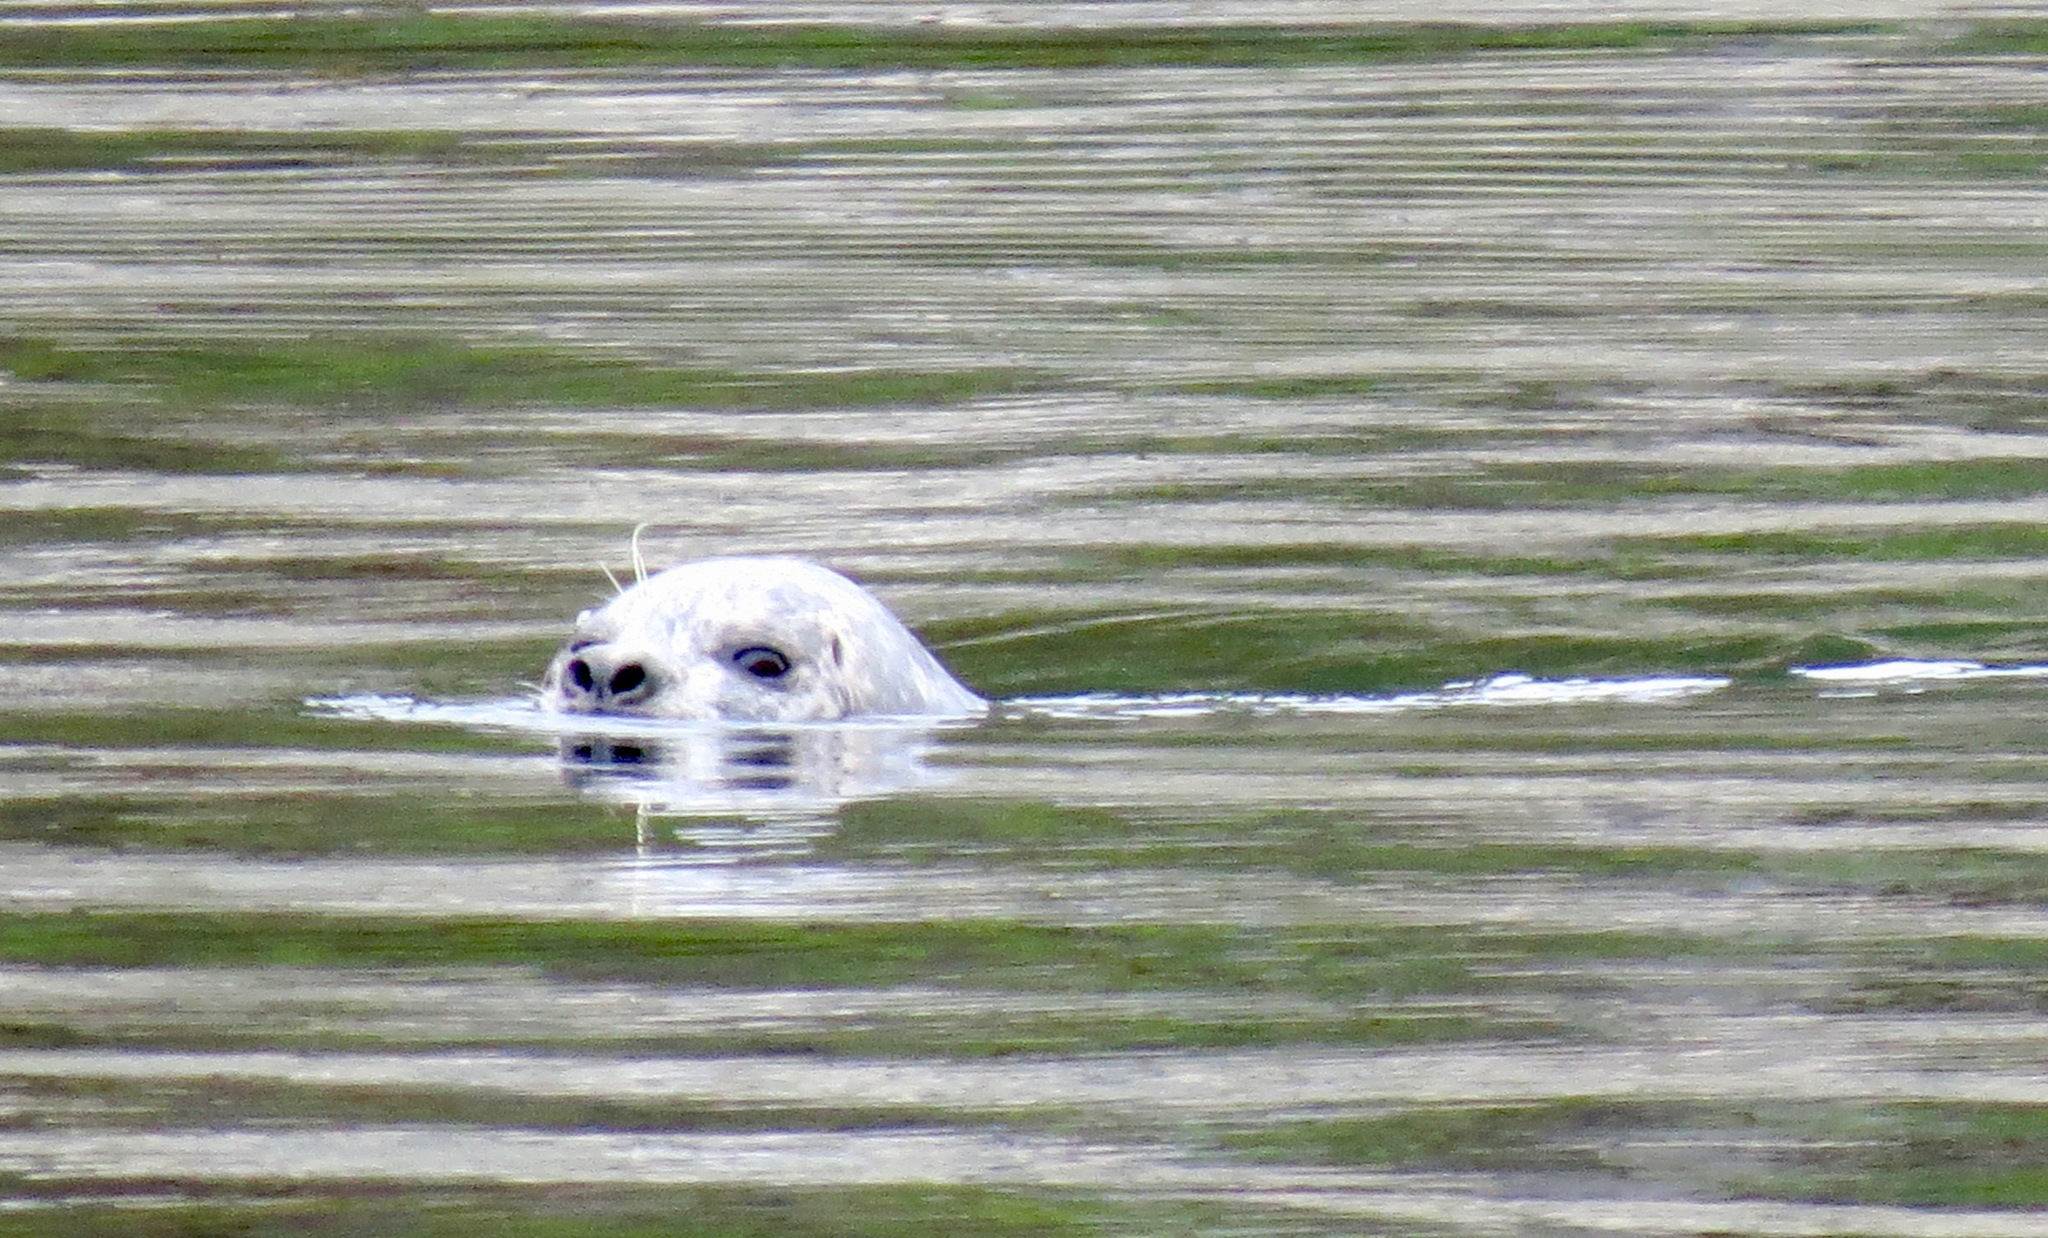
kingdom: Animalia
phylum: Chordata
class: Mammalia
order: Carnivora
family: Phocidae
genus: Phoca
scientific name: Phoca vitulina
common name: Harbor seal
